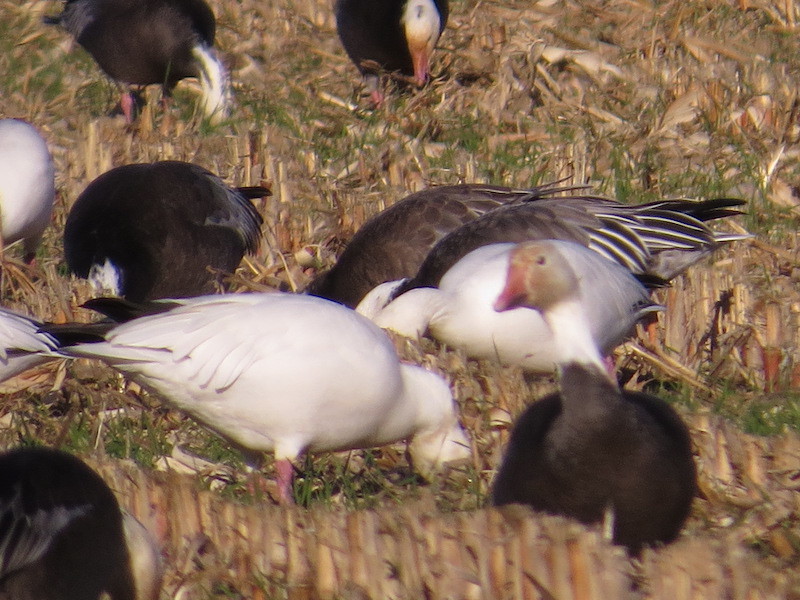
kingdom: Animalia
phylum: Chordata
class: Aves
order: Anseriformes
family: Anatidae
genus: Anser
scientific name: Anser caerulescens
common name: Snow goose
